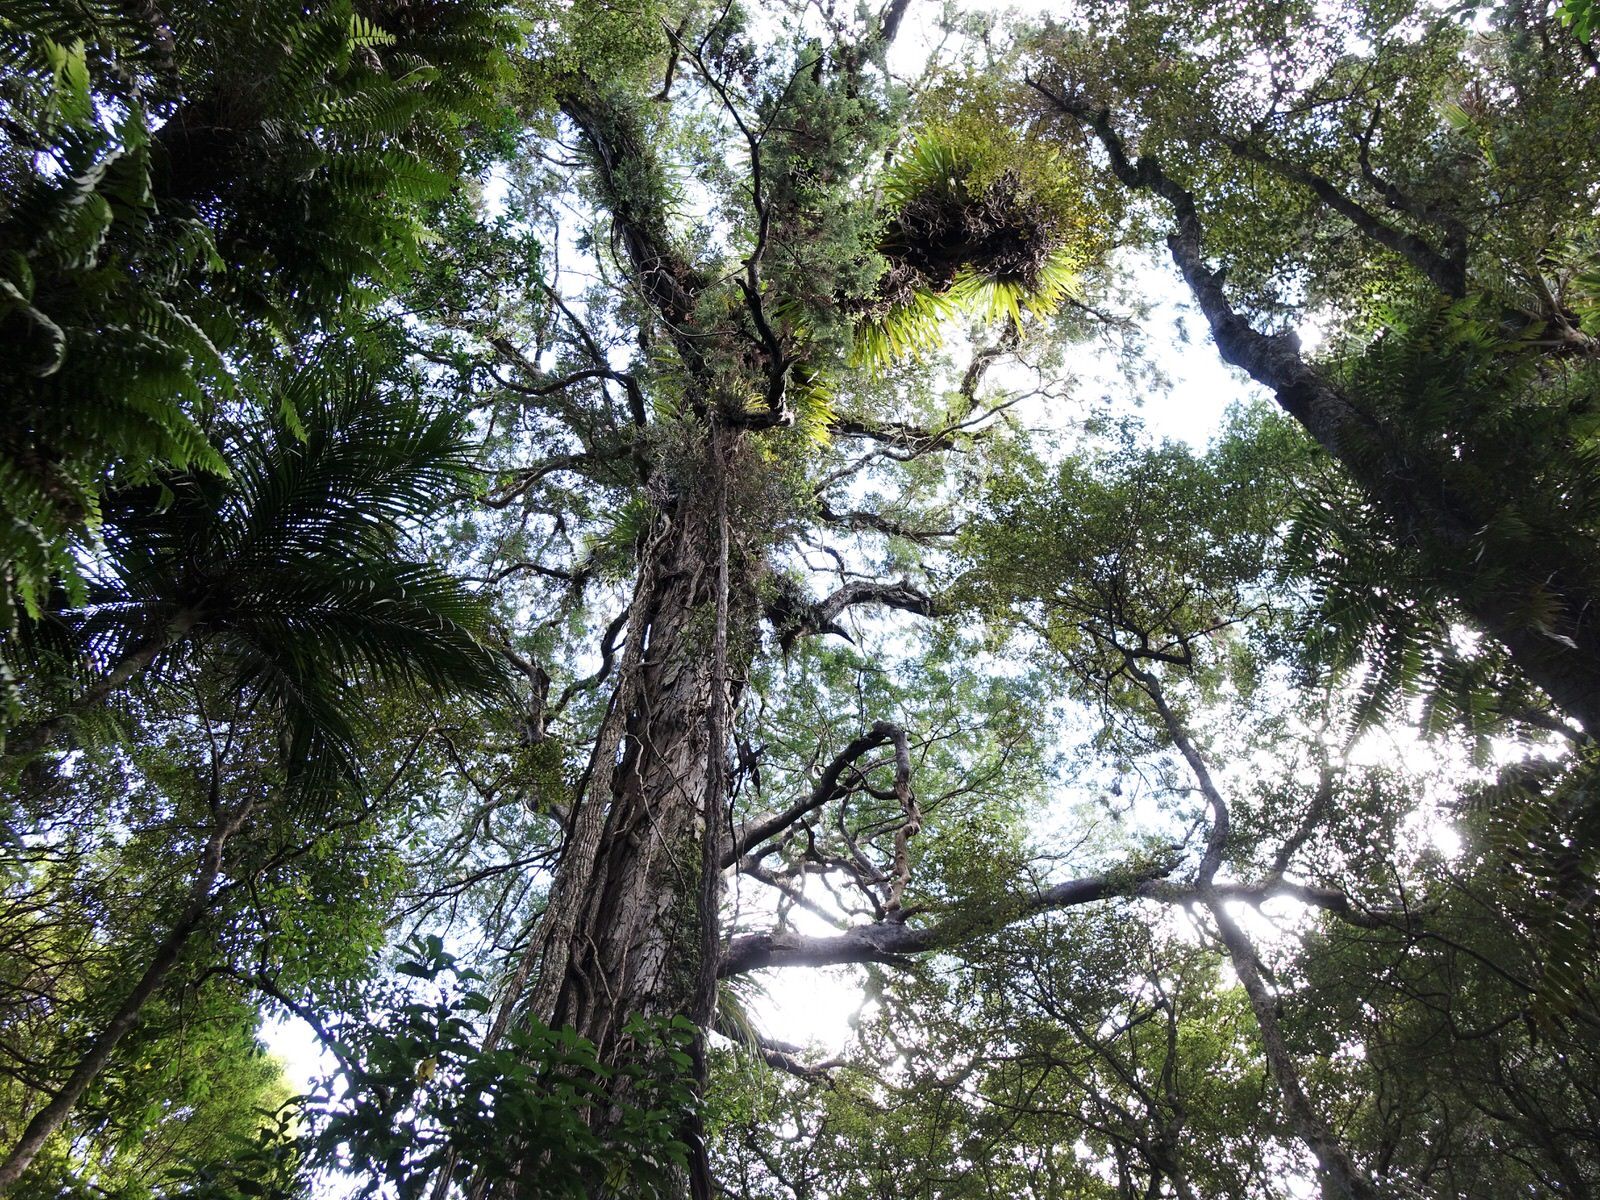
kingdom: Plantae
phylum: Tracheophyta
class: Pinopsida
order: Pinales
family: Podocarpaceae
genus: Dacrydium
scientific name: Dacrydium cupressinum
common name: Red pine
